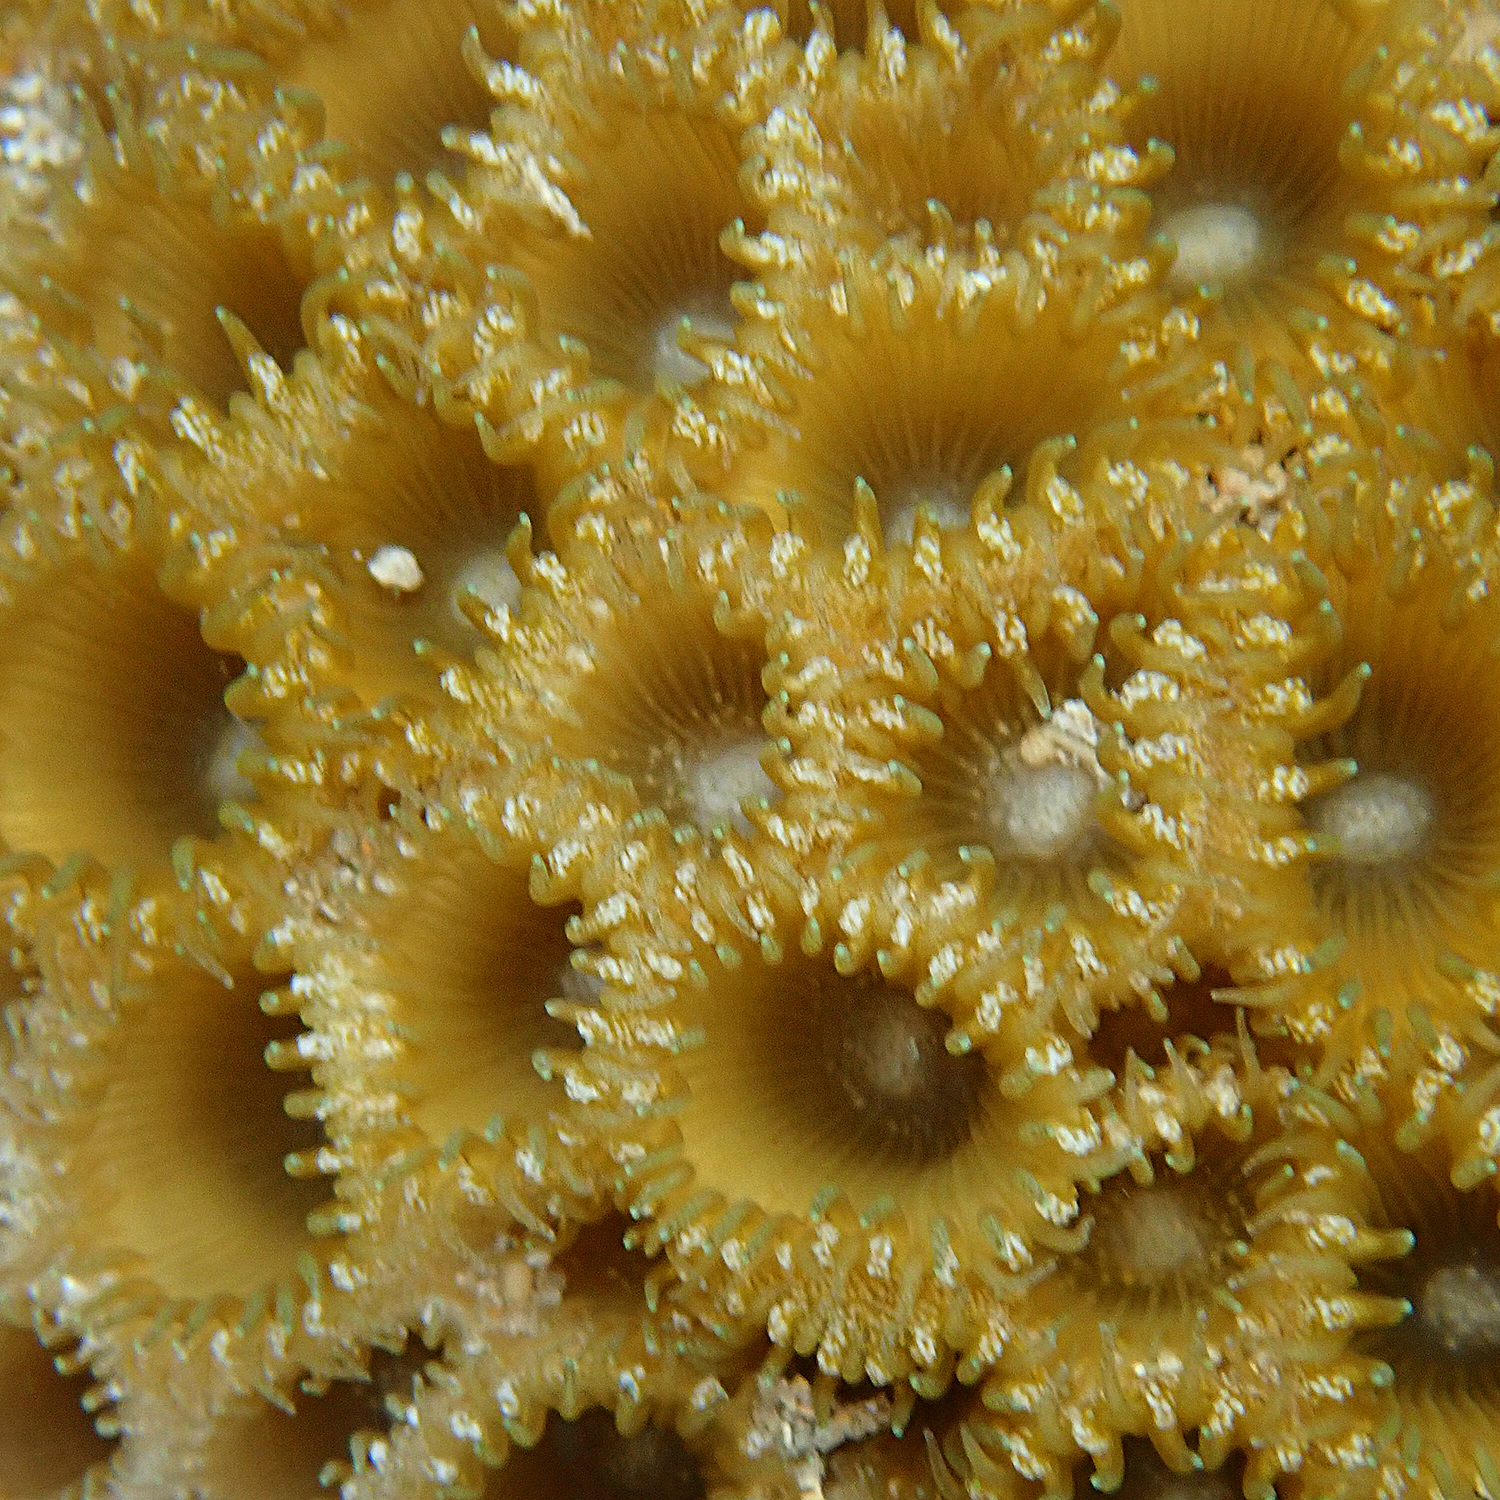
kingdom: Animalia
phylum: Cnidaria
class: Anthozoa
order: Zoantharia
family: Sphenopidae
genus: Palythoa
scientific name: Palythoa tuberculosa
